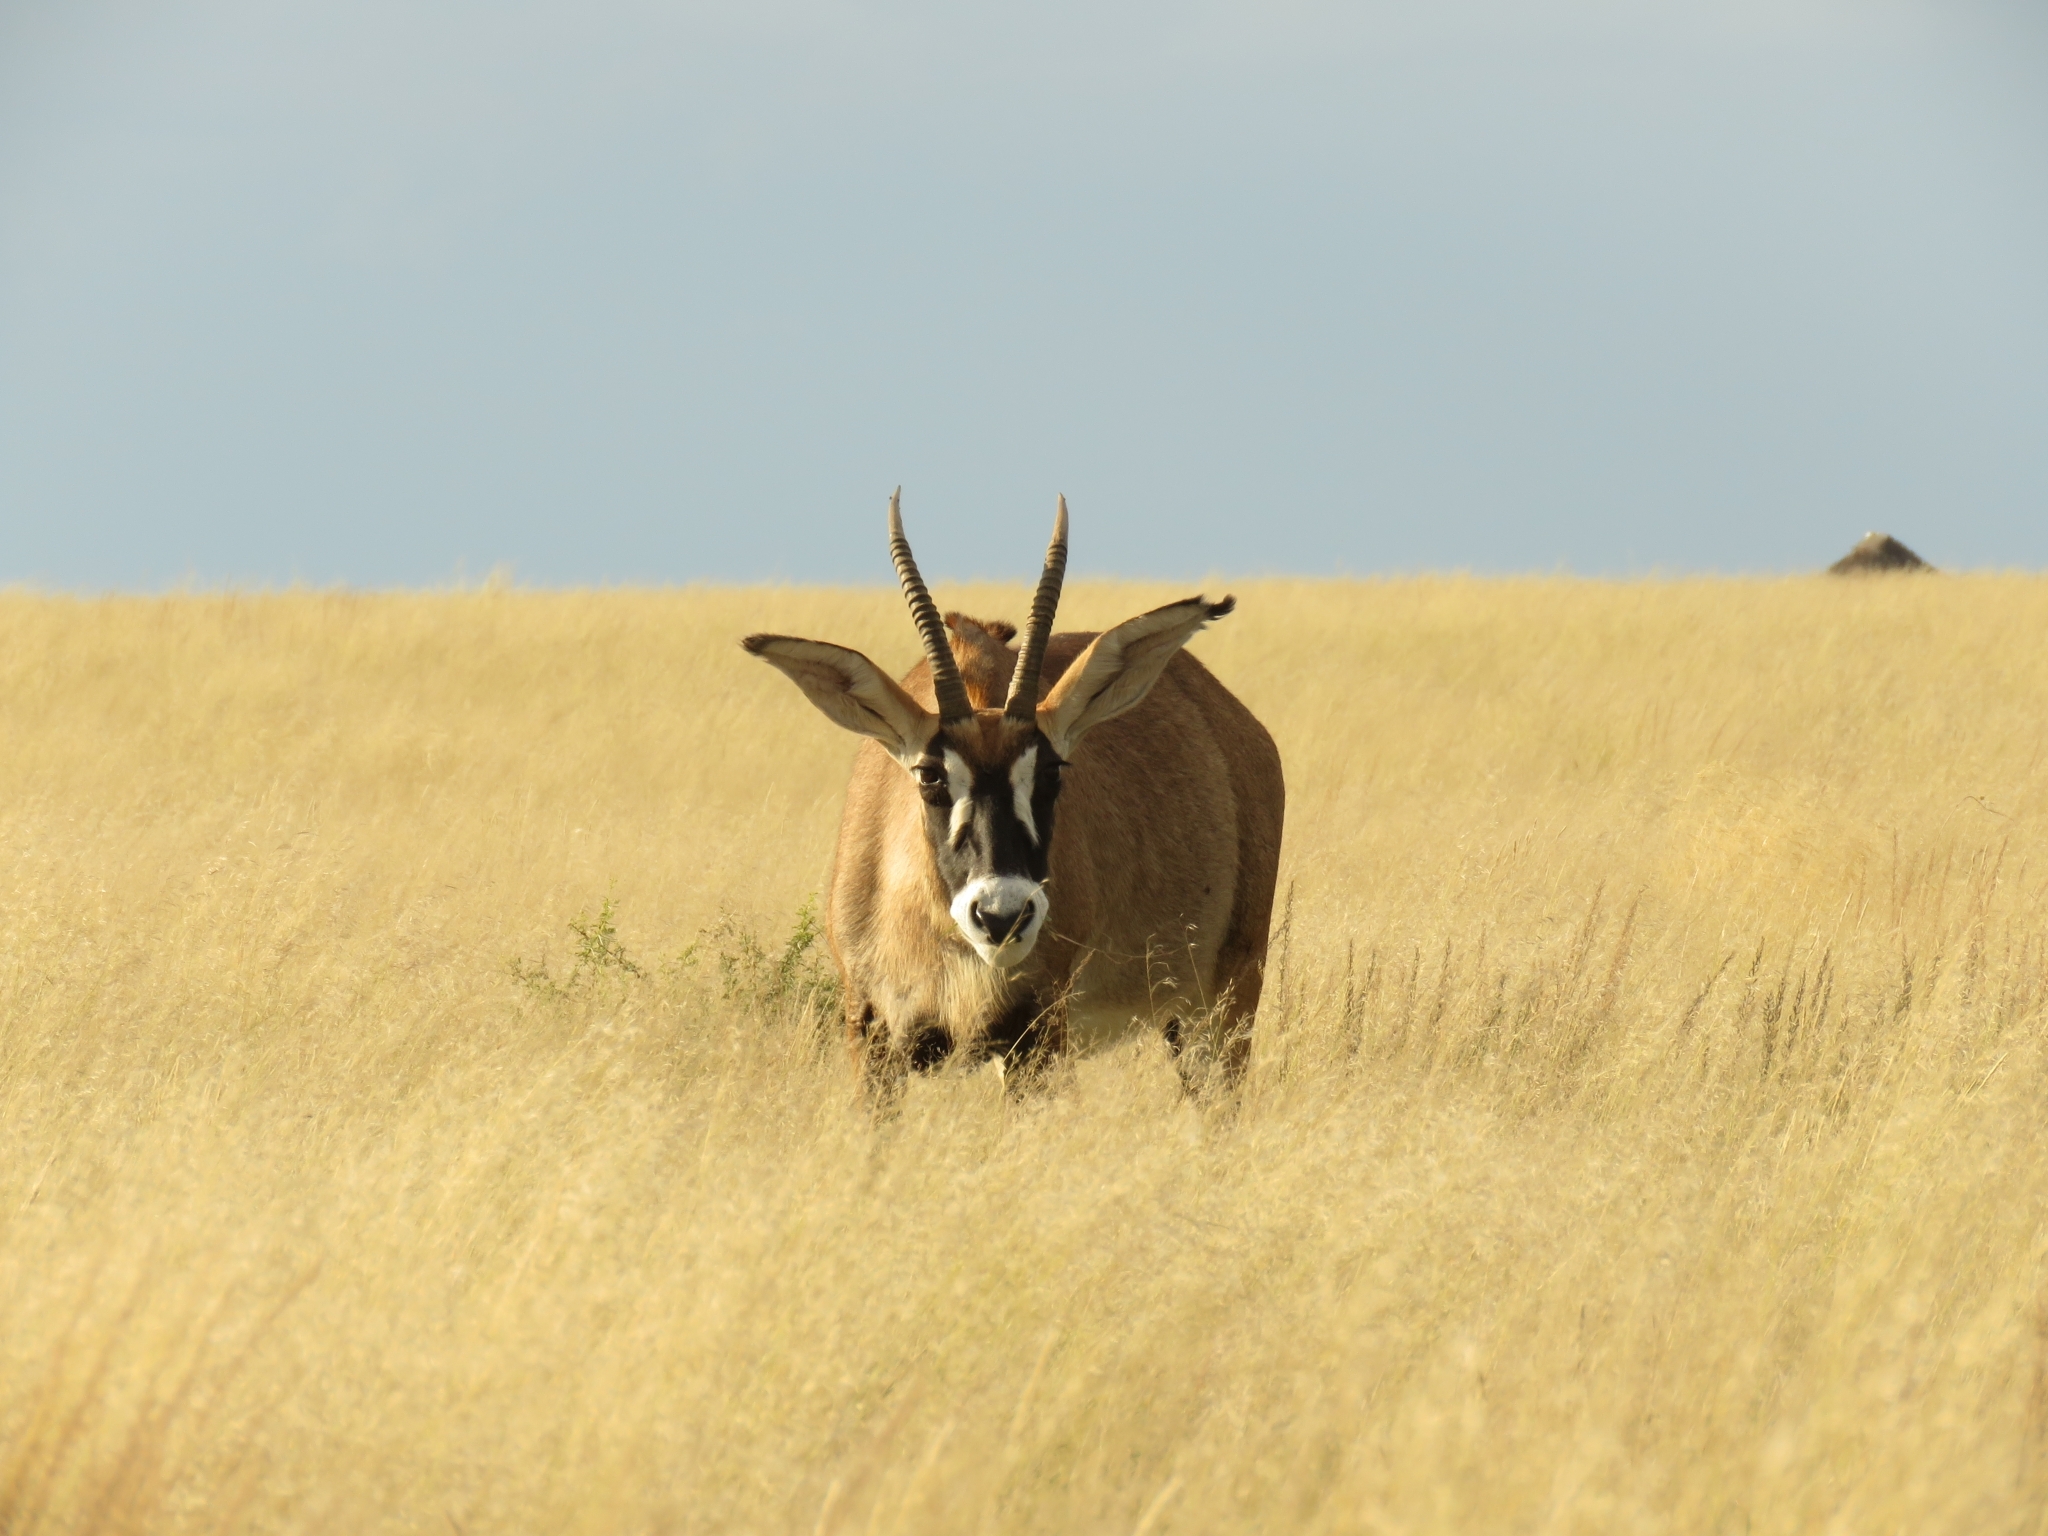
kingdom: Animalia
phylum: Chordata
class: Mammalia
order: Artiodactyla
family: Bovidae
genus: Hippotragus
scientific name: Hippotragus equinus
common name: Roan antelope
